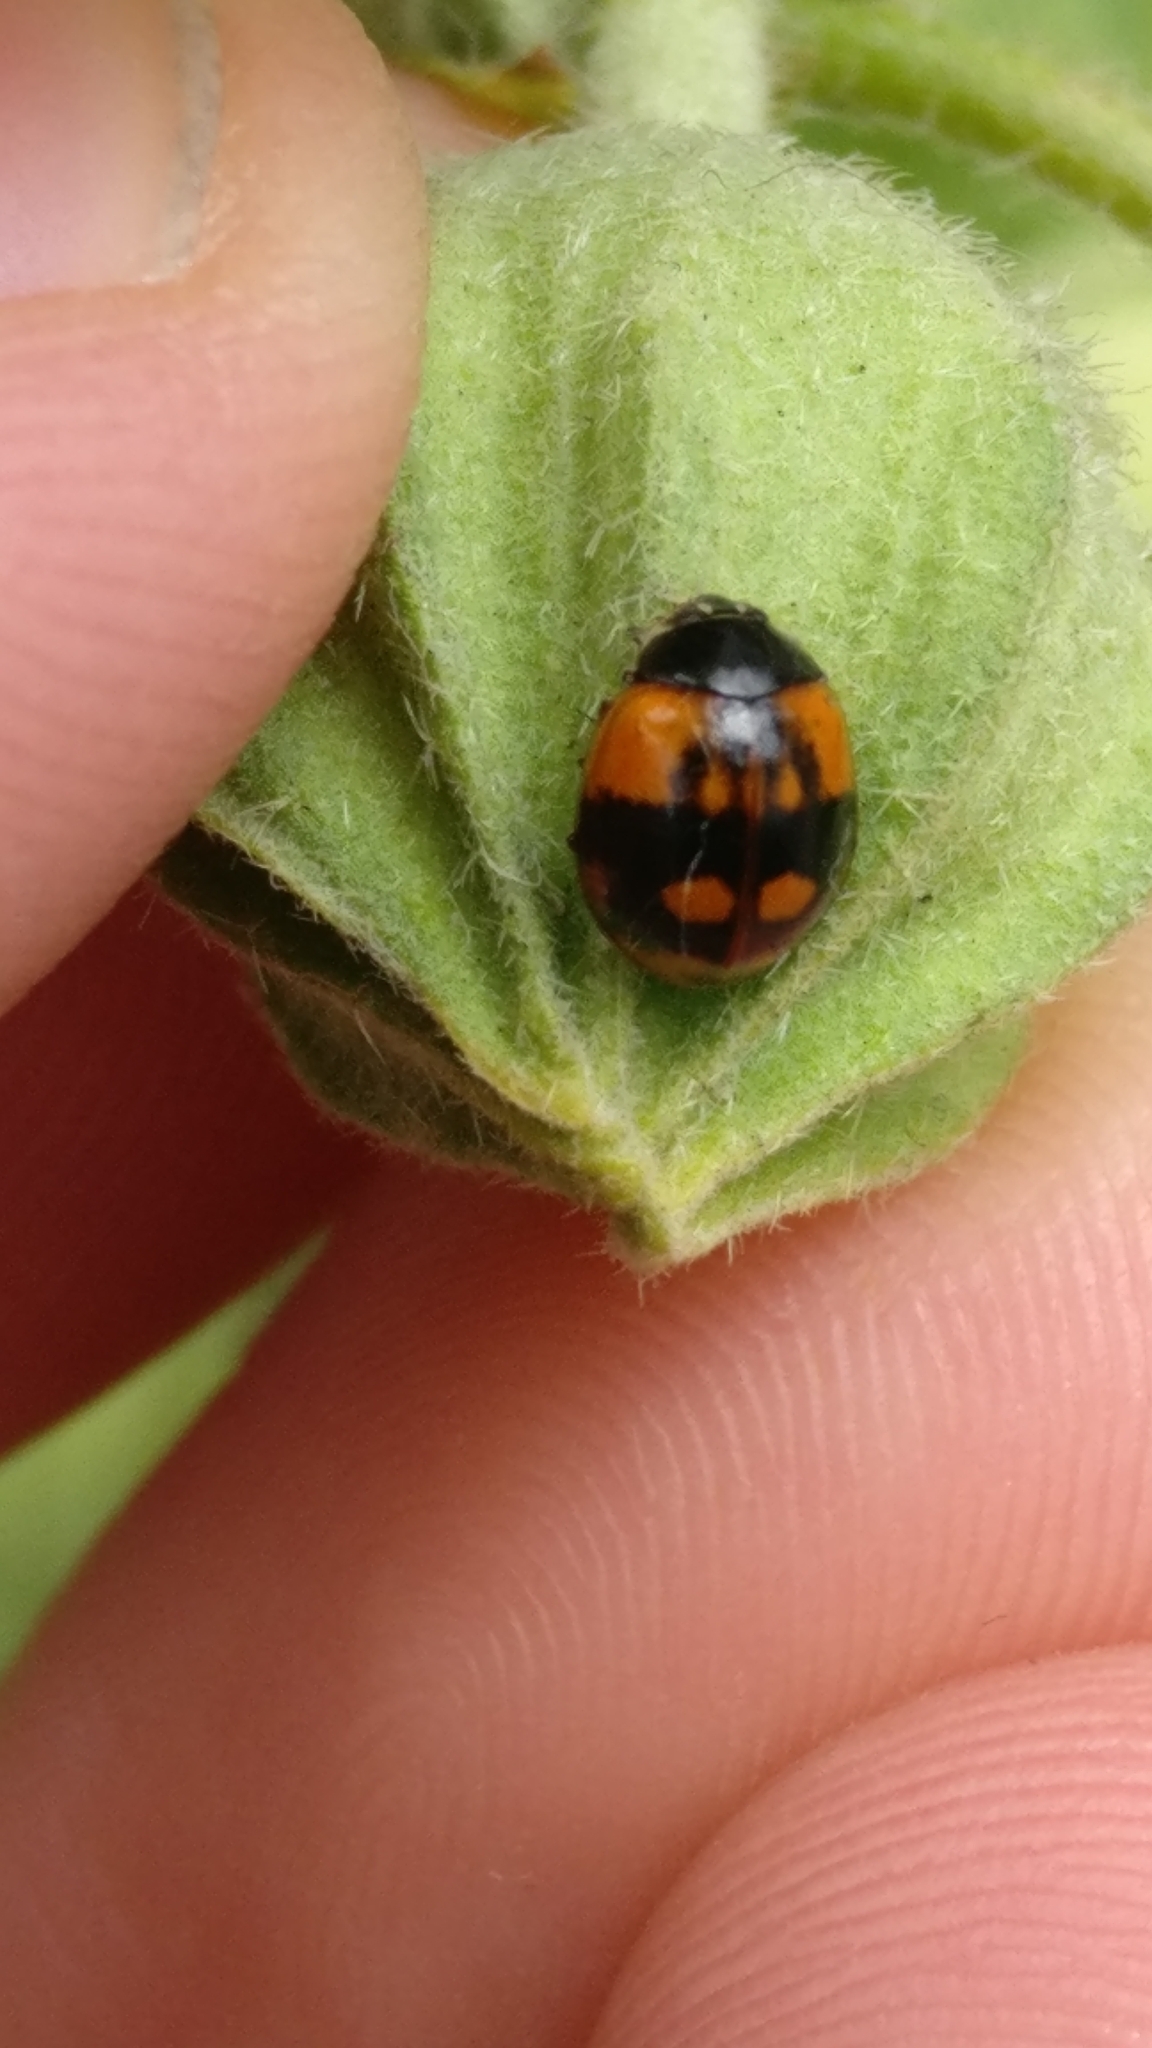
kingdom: Animalia
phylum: Arthropoda
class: Insecta
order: Coleoptera
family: Coccinellidae
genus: Adalia
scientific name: Adalia bipunctata
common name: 2-spot ladybird
